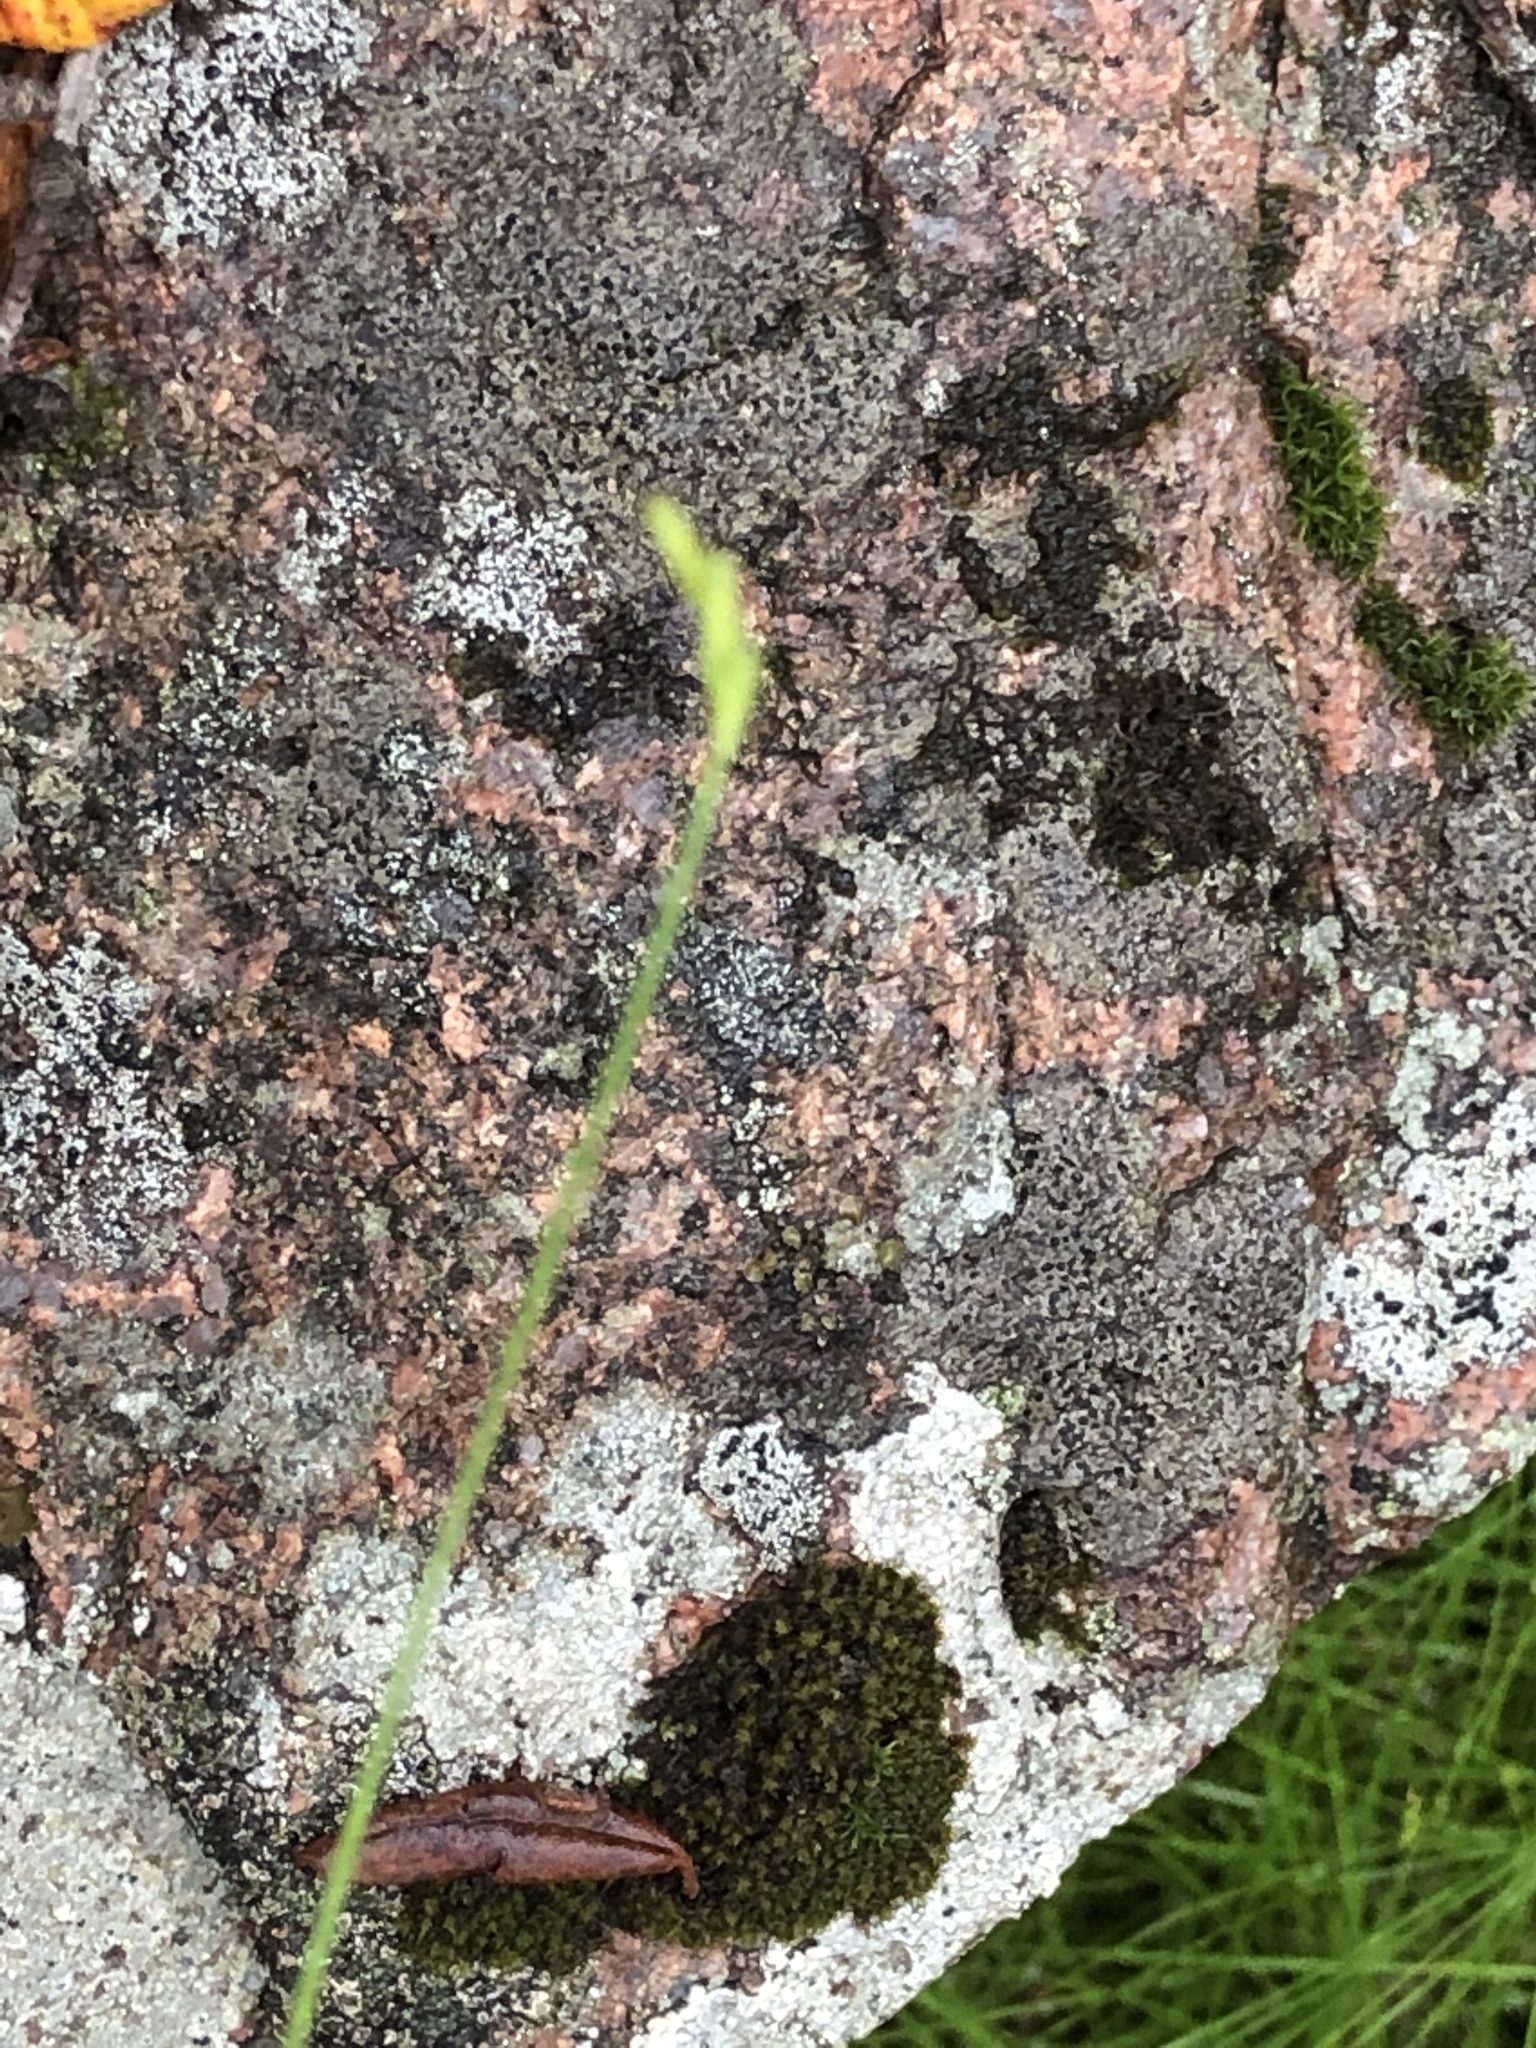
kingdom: Plantae
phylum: Tracheophyta
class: Liliopsida
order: Poales
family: Cyperaceae
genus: Carex
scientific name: Carex leptalea
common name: Bristly-stalked sedge
